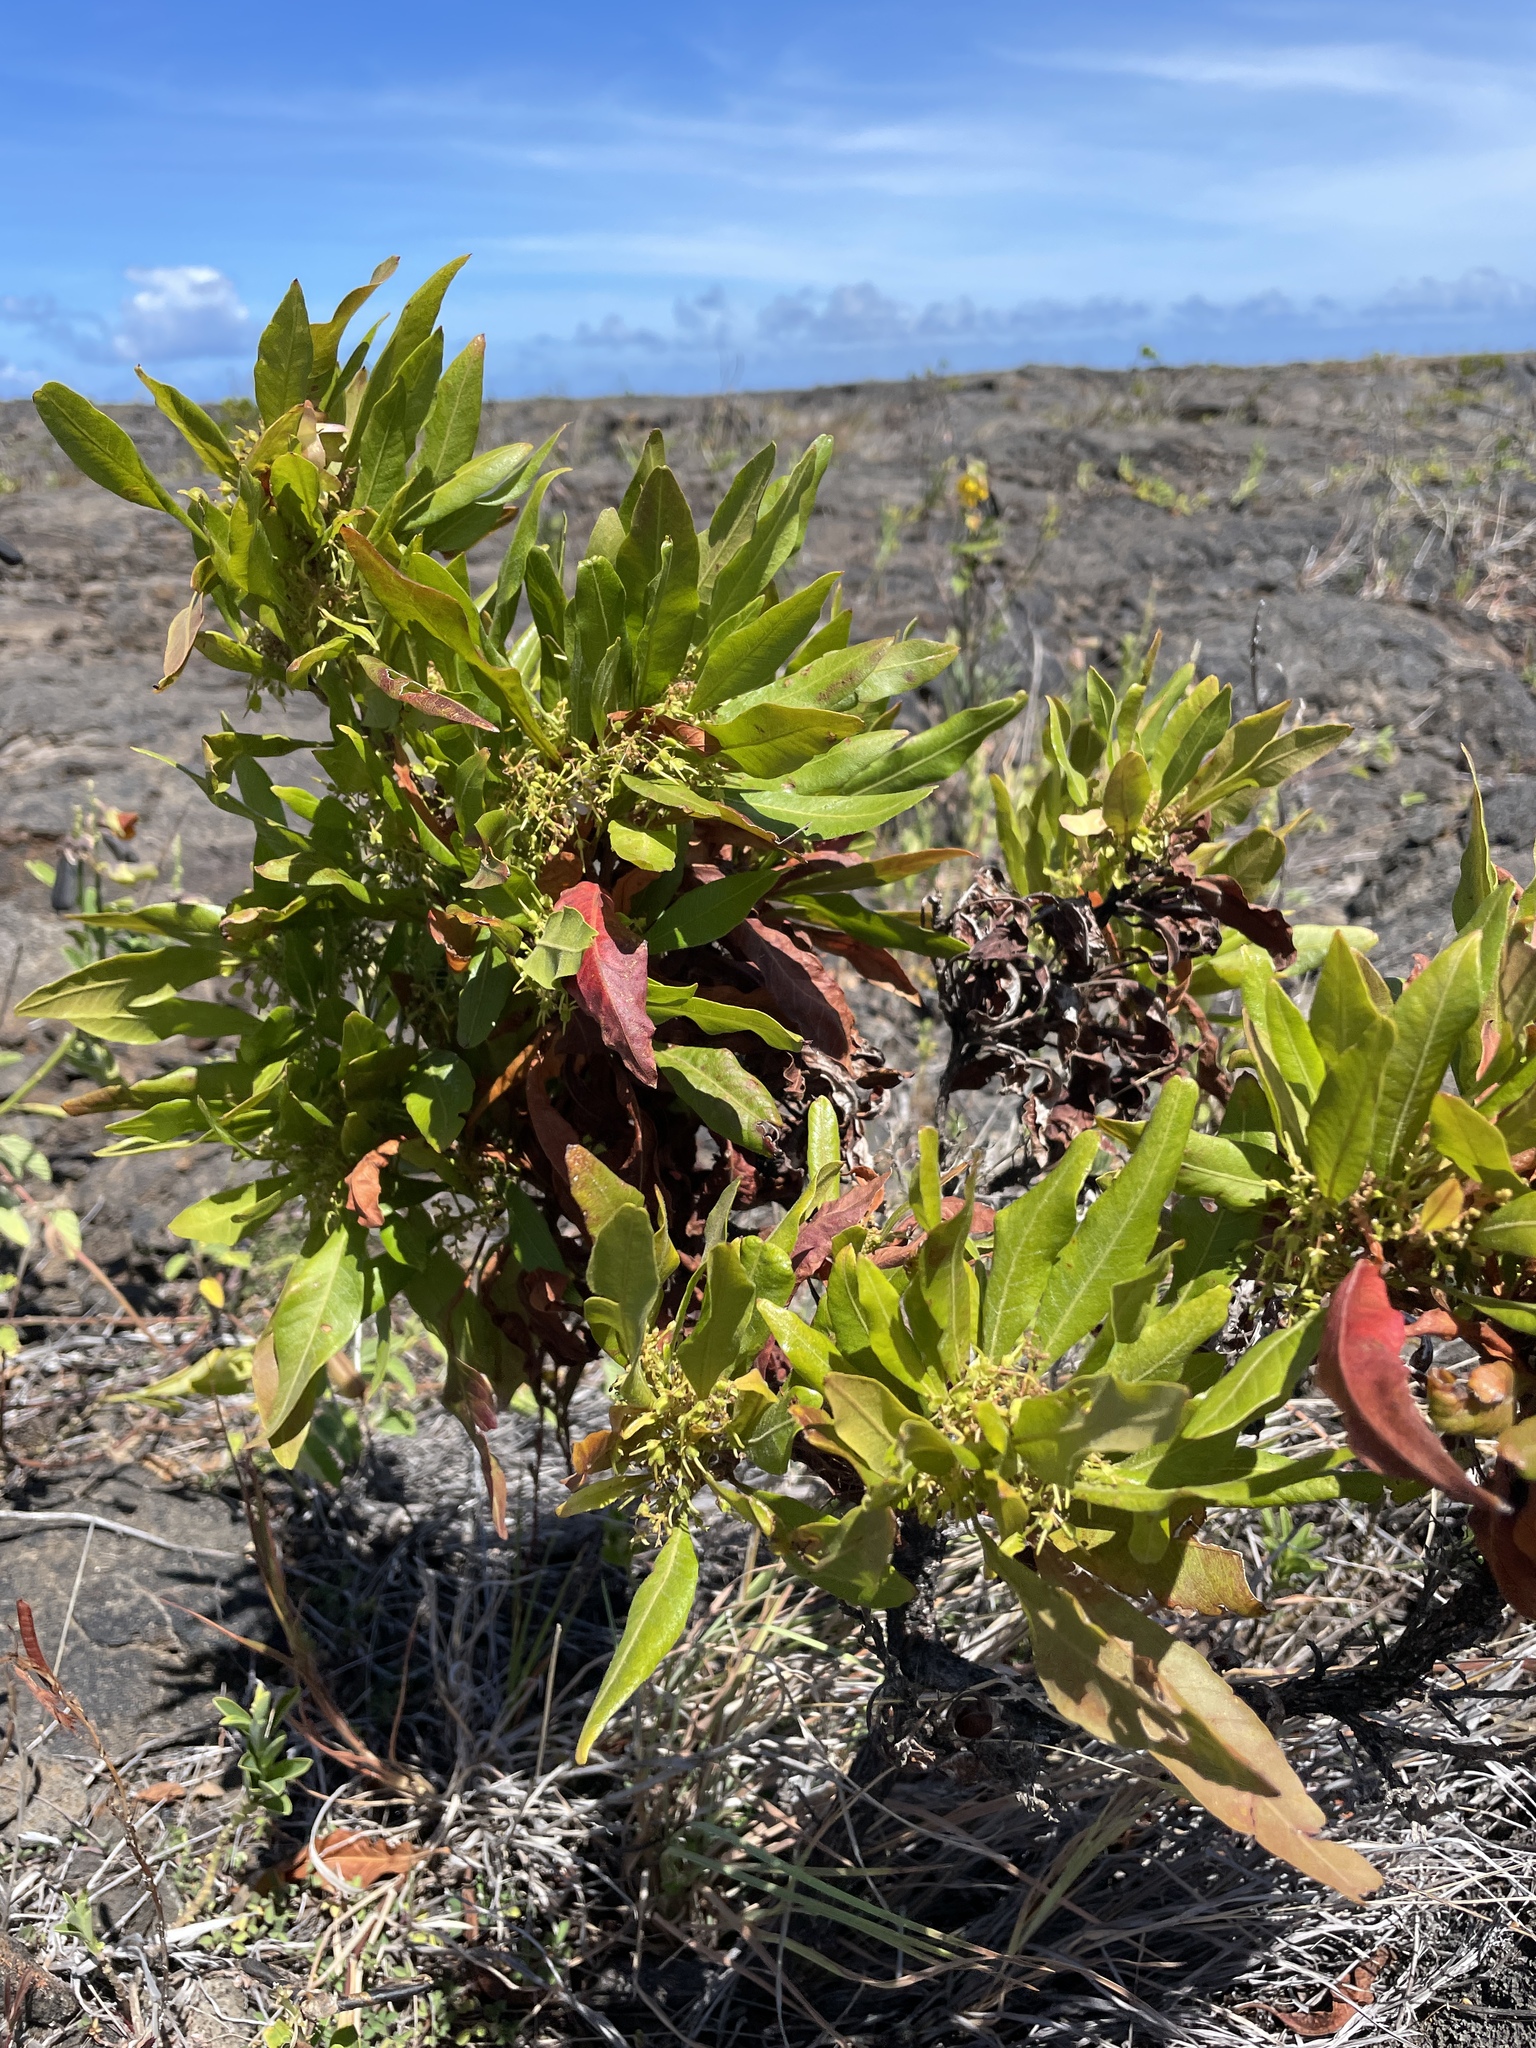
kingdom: Plantae
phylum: Tracheophyta
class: Magnoliopsida
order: Sapindales
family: Sapindaceae
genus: Dodonaea
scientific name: Dodonaea viscosa
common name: Hopbush
